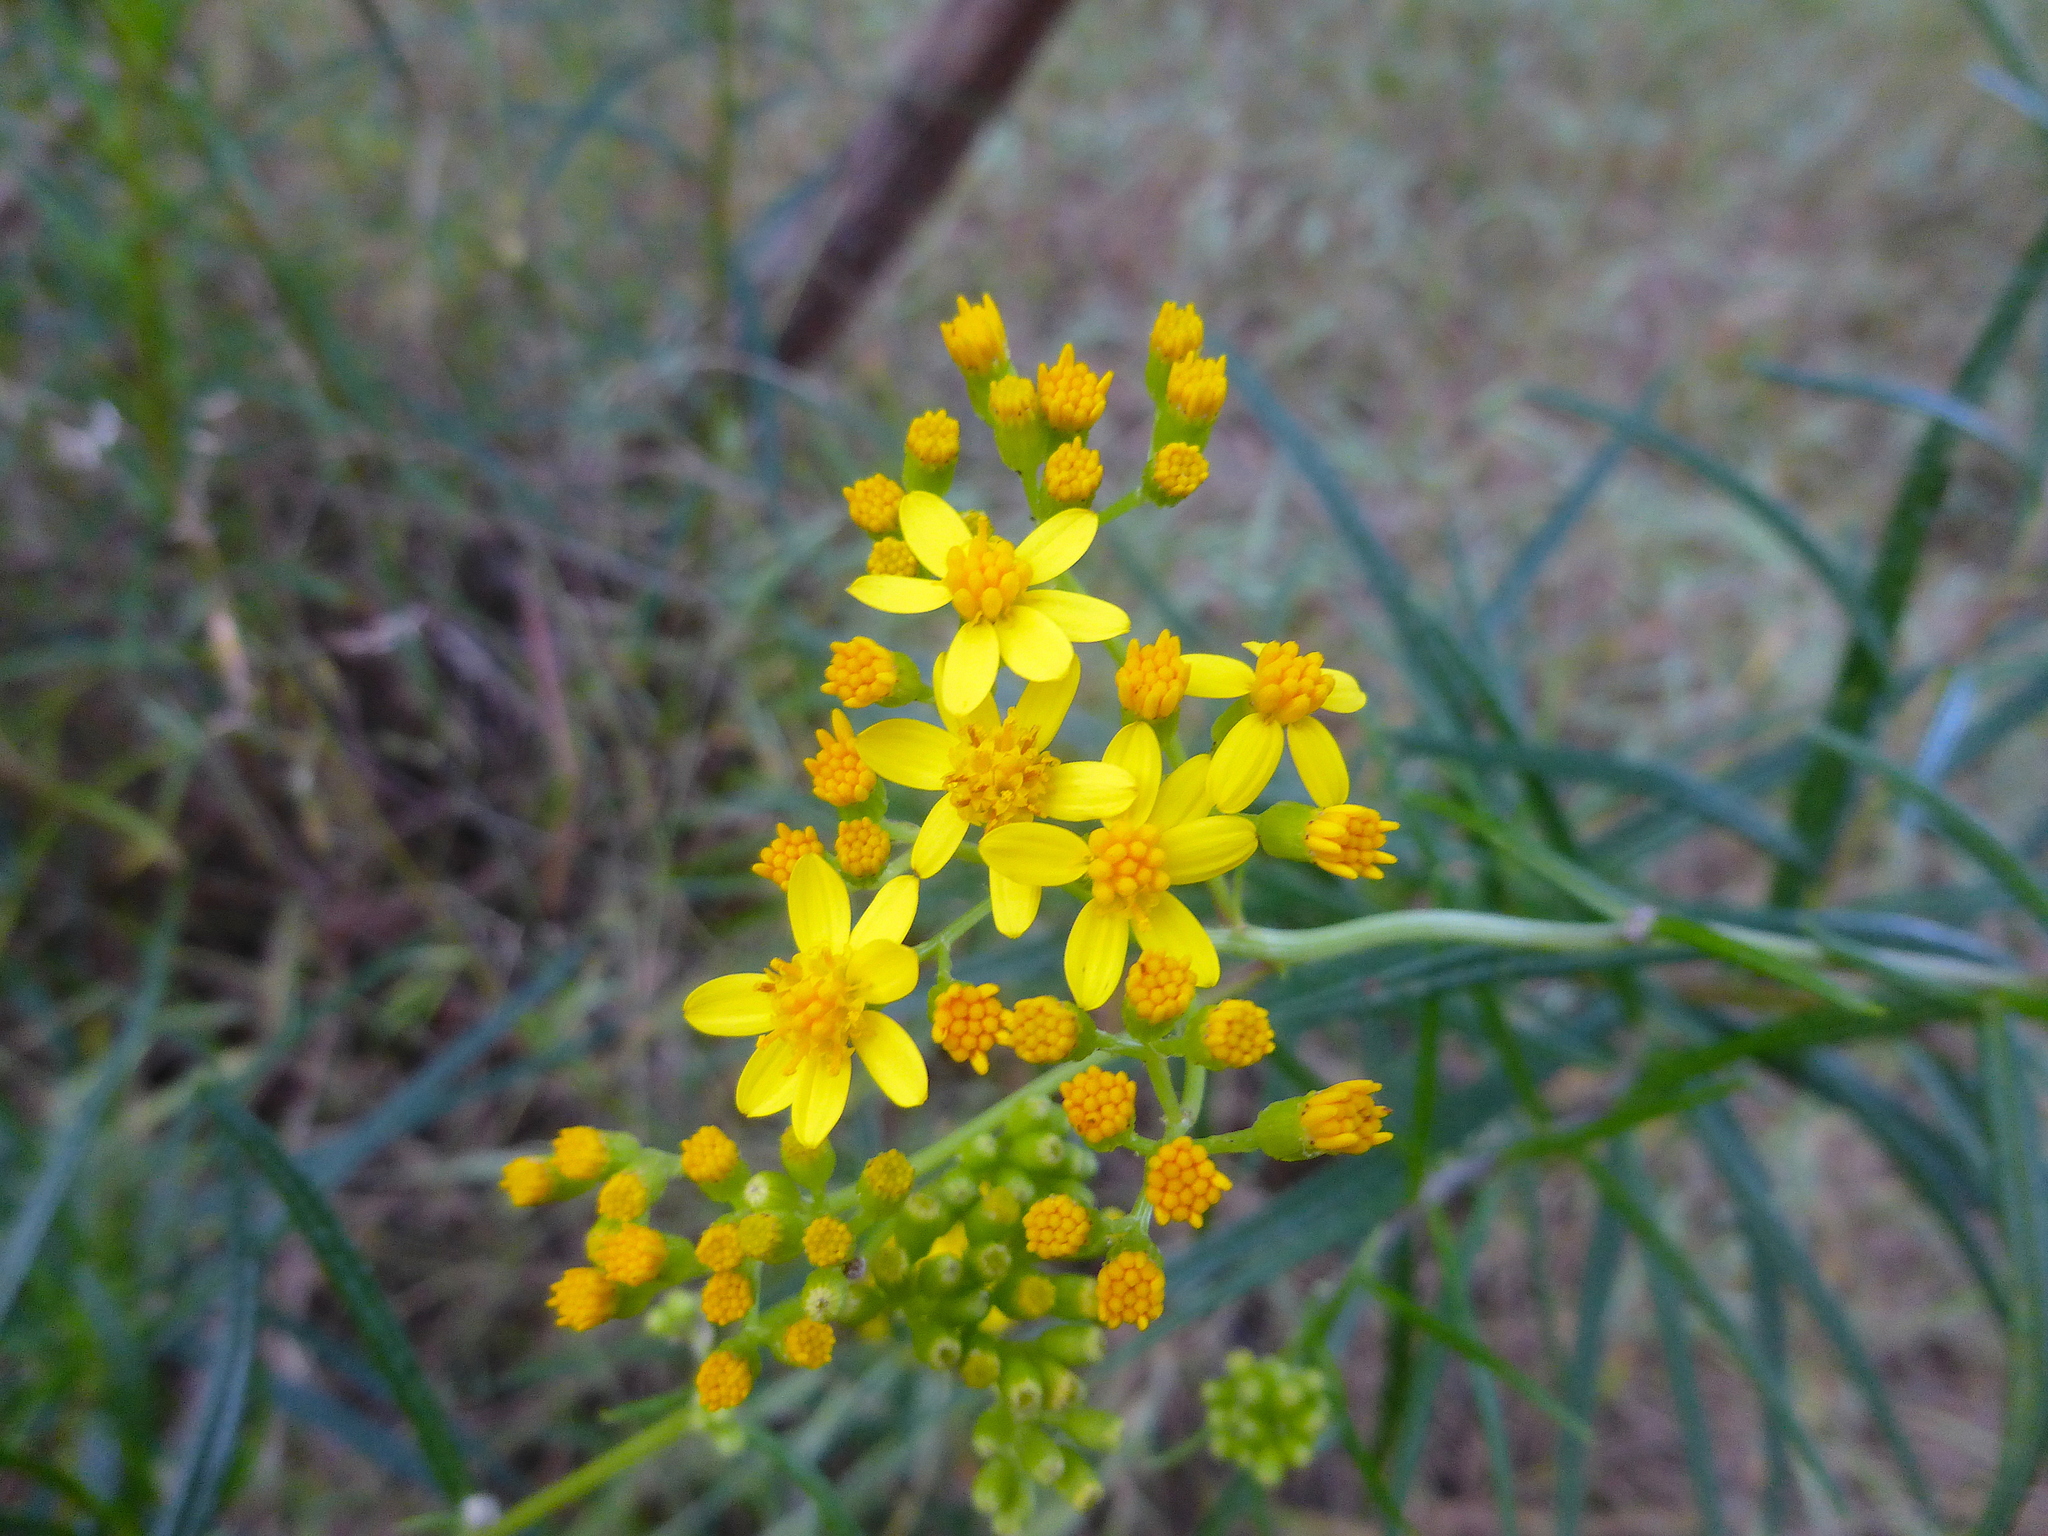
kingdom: Plantae
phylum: Tracheophyta
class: Magnoliopsida
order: Asterales
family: Asteraceae
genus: Senecio
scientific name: Senecio linearifolius
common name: Fireweed groundsel
